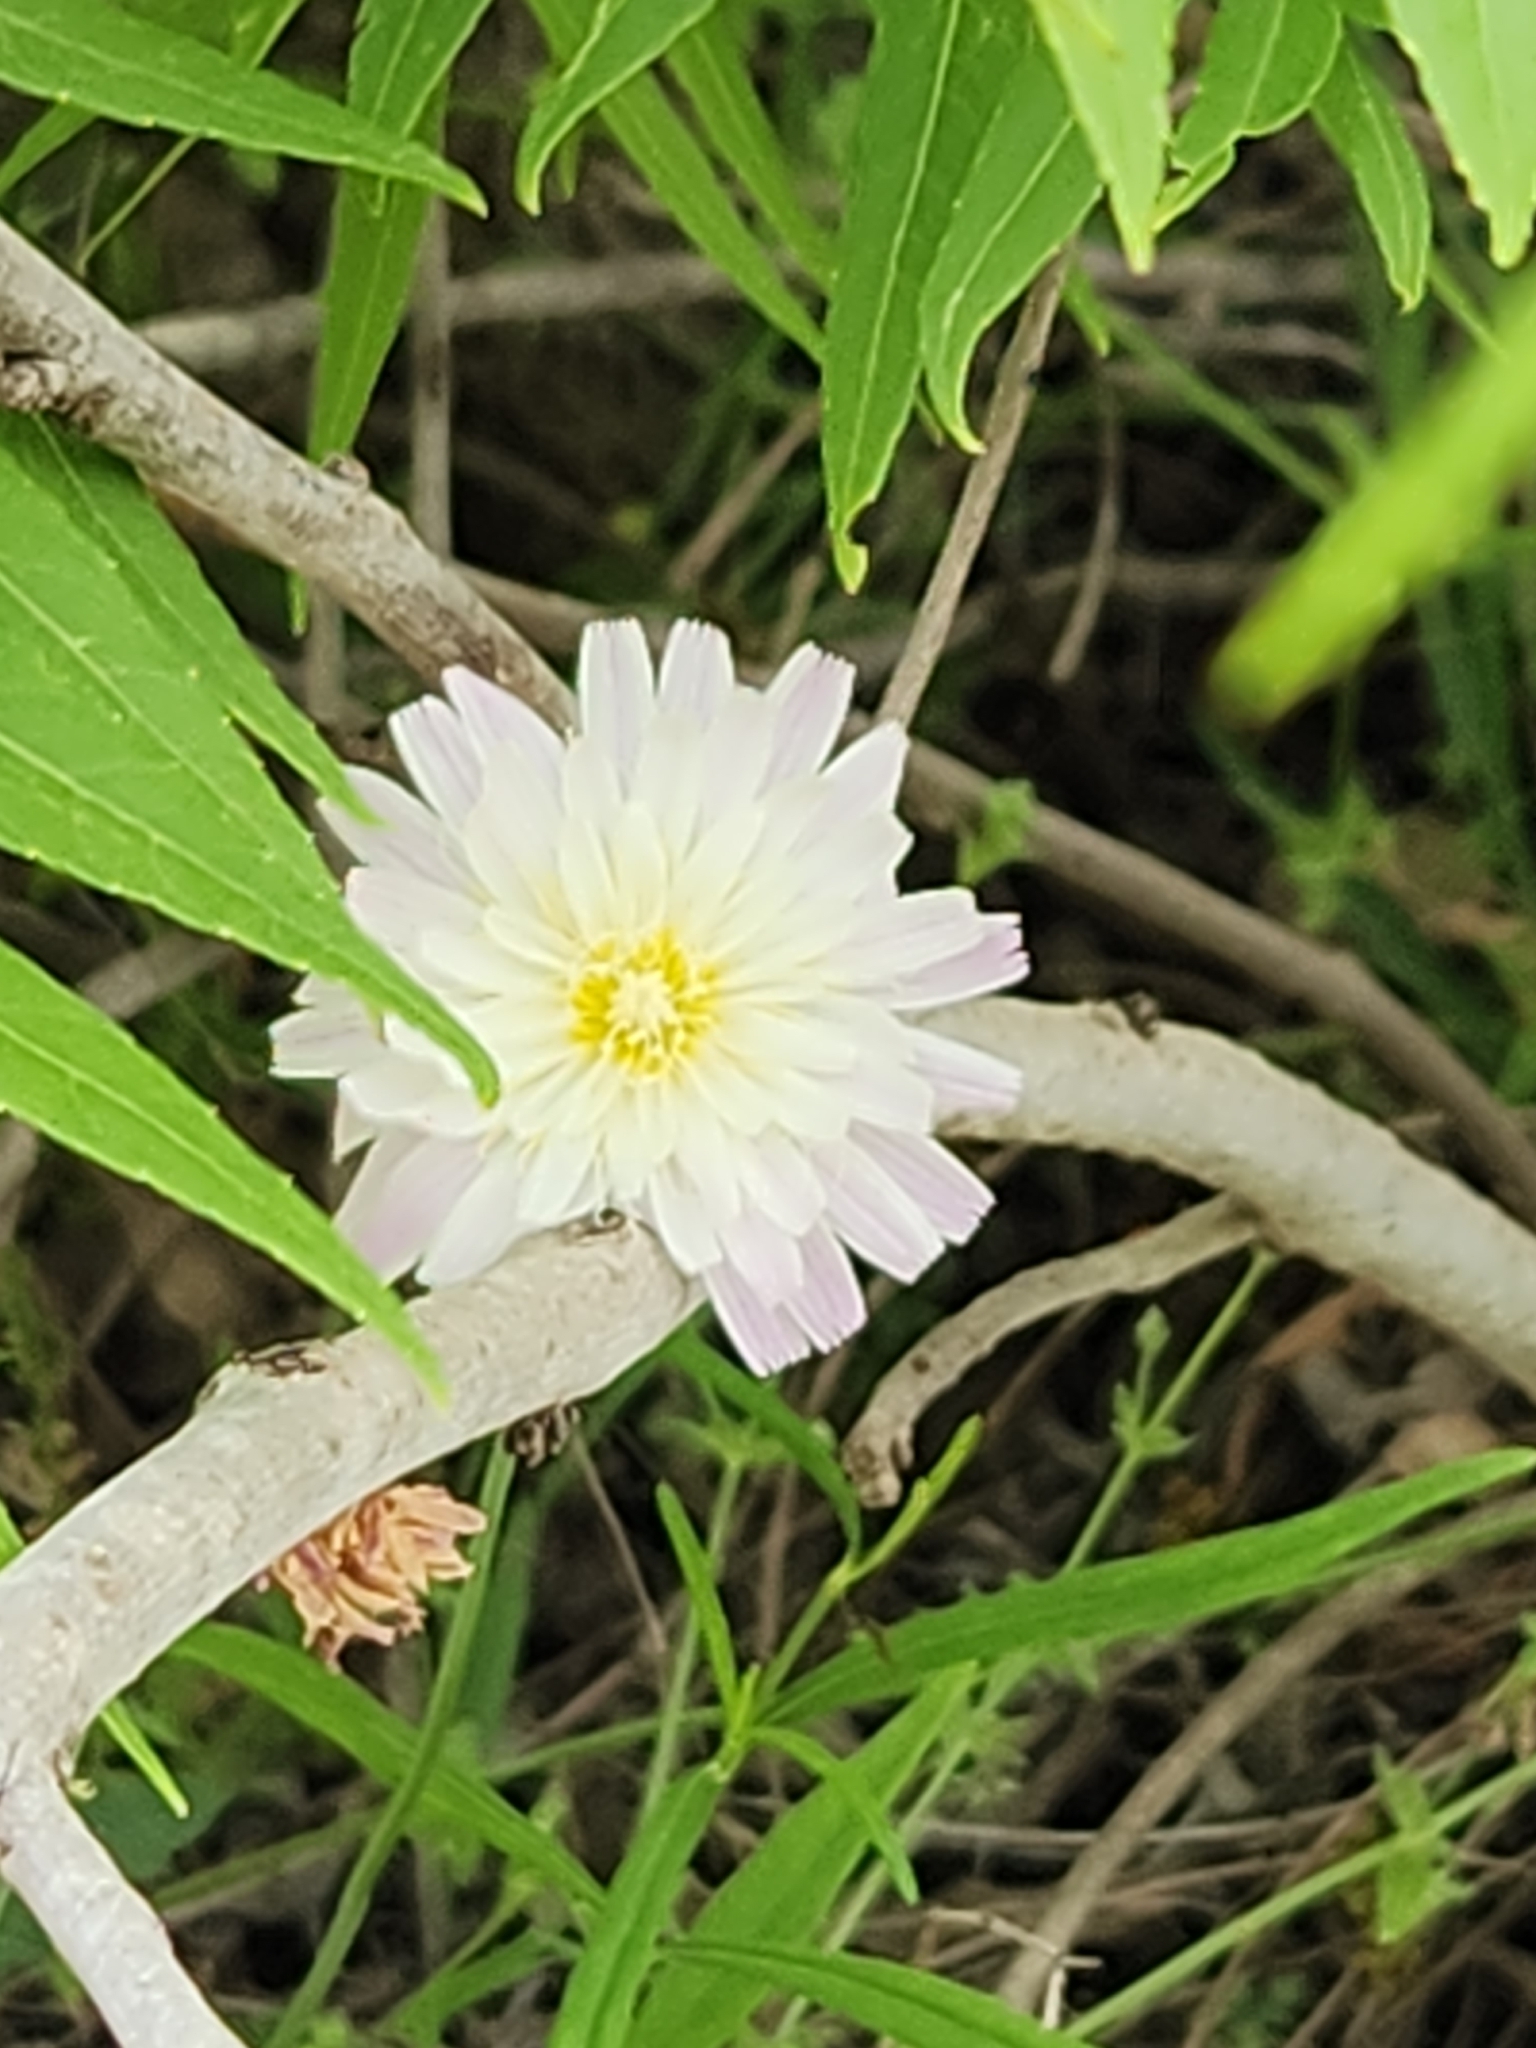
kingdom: Plantae
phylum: Tracheophyta
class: Magnoliopsida
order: Asterales
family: Asteraceae
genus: Pinaropappus
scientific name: Pinaropappus roseus
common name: Rock-lettuce
